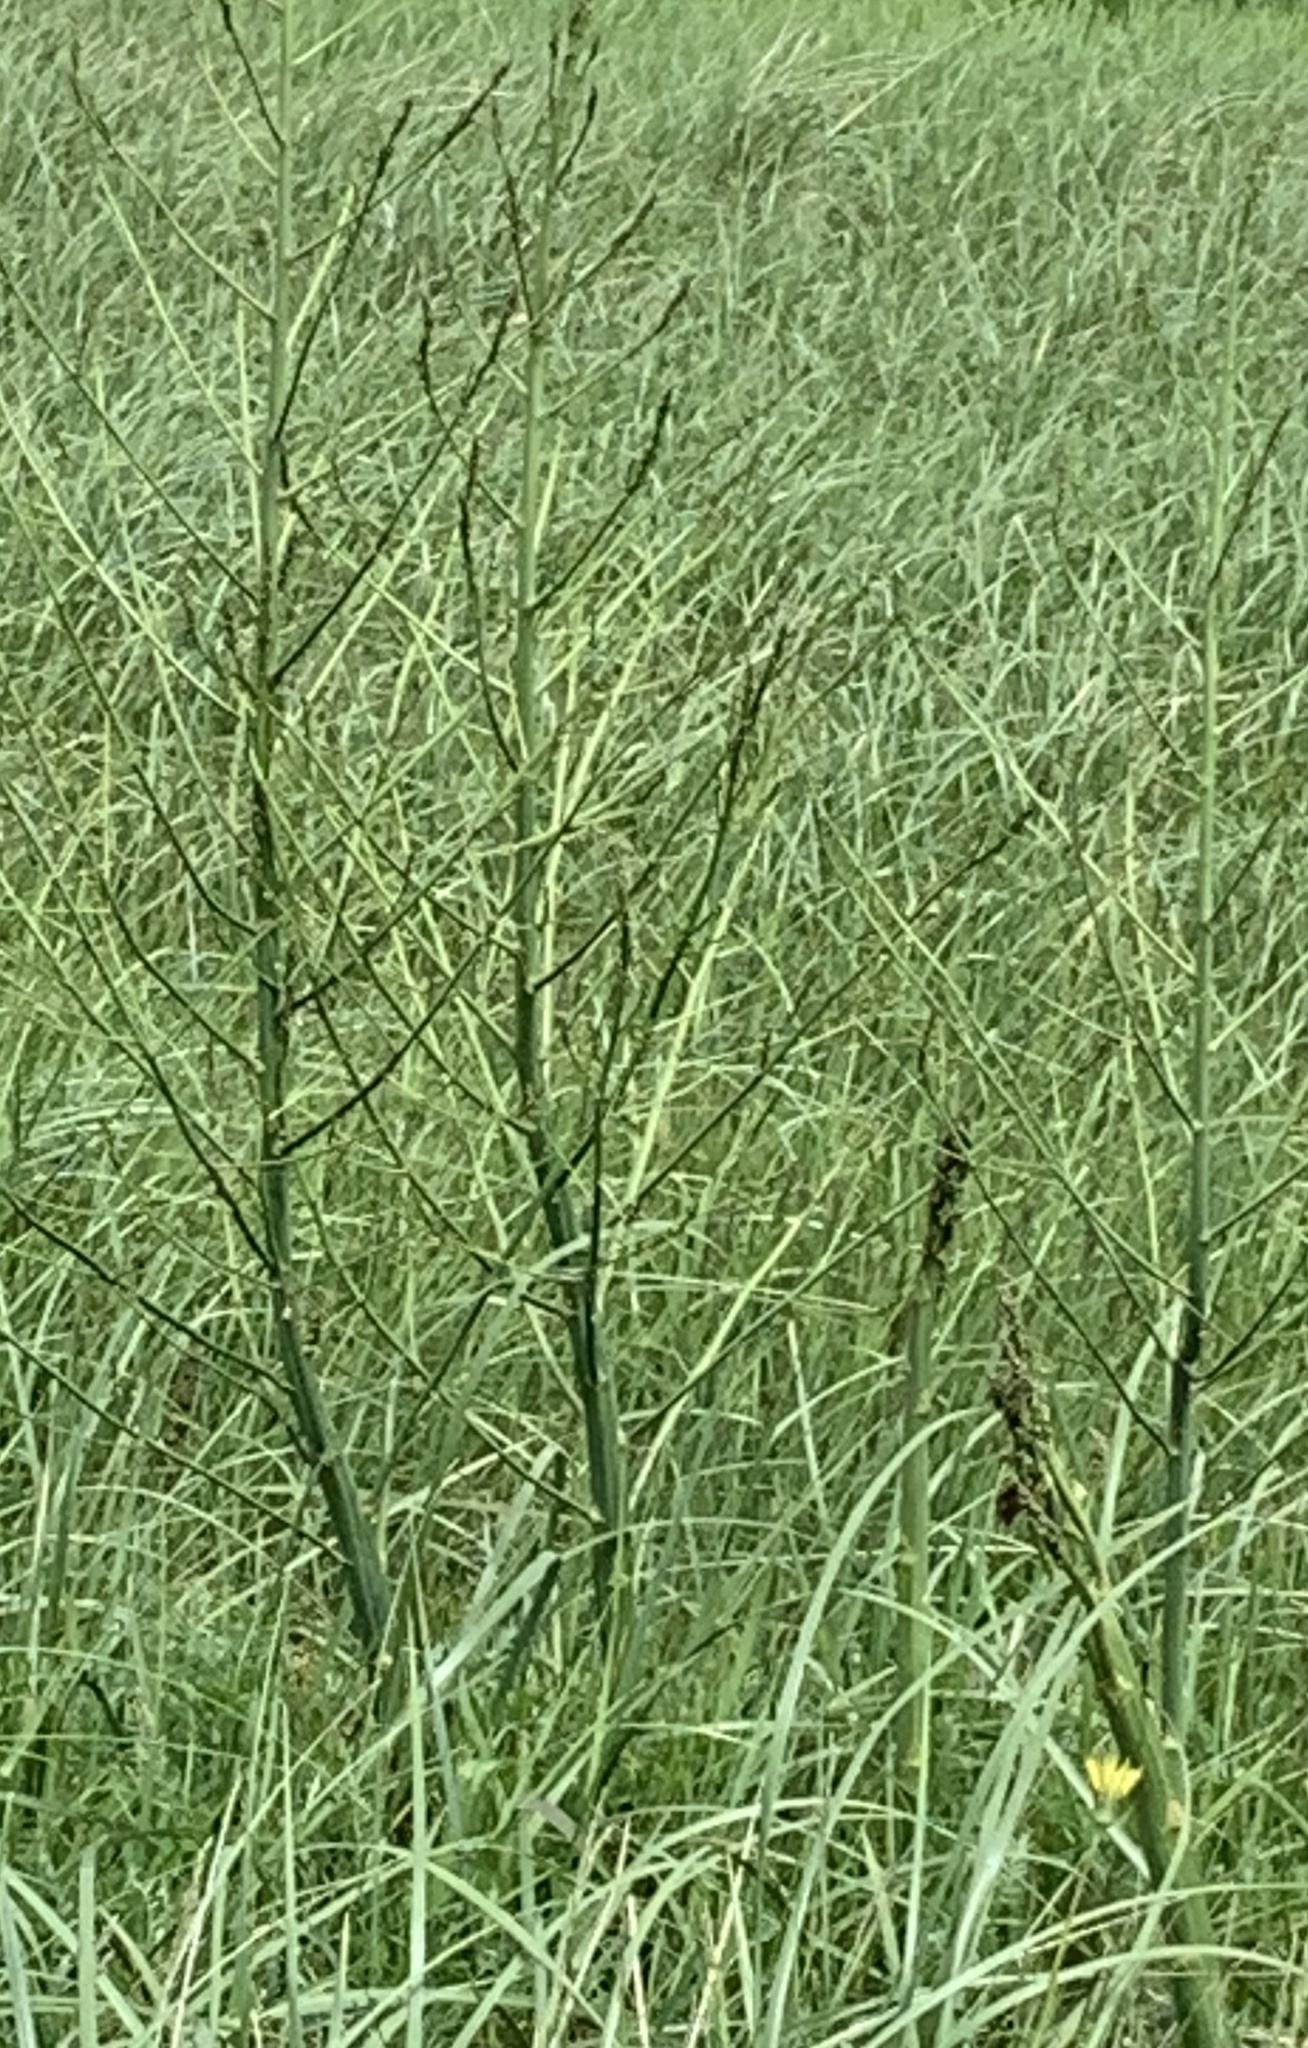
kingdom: Plantae
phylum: Tracheophyta
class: Liliopsida
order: Asparagales
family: Asparagaceae
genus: Asparagus
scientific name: Asparagus officinalis
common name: Garden asparagus
